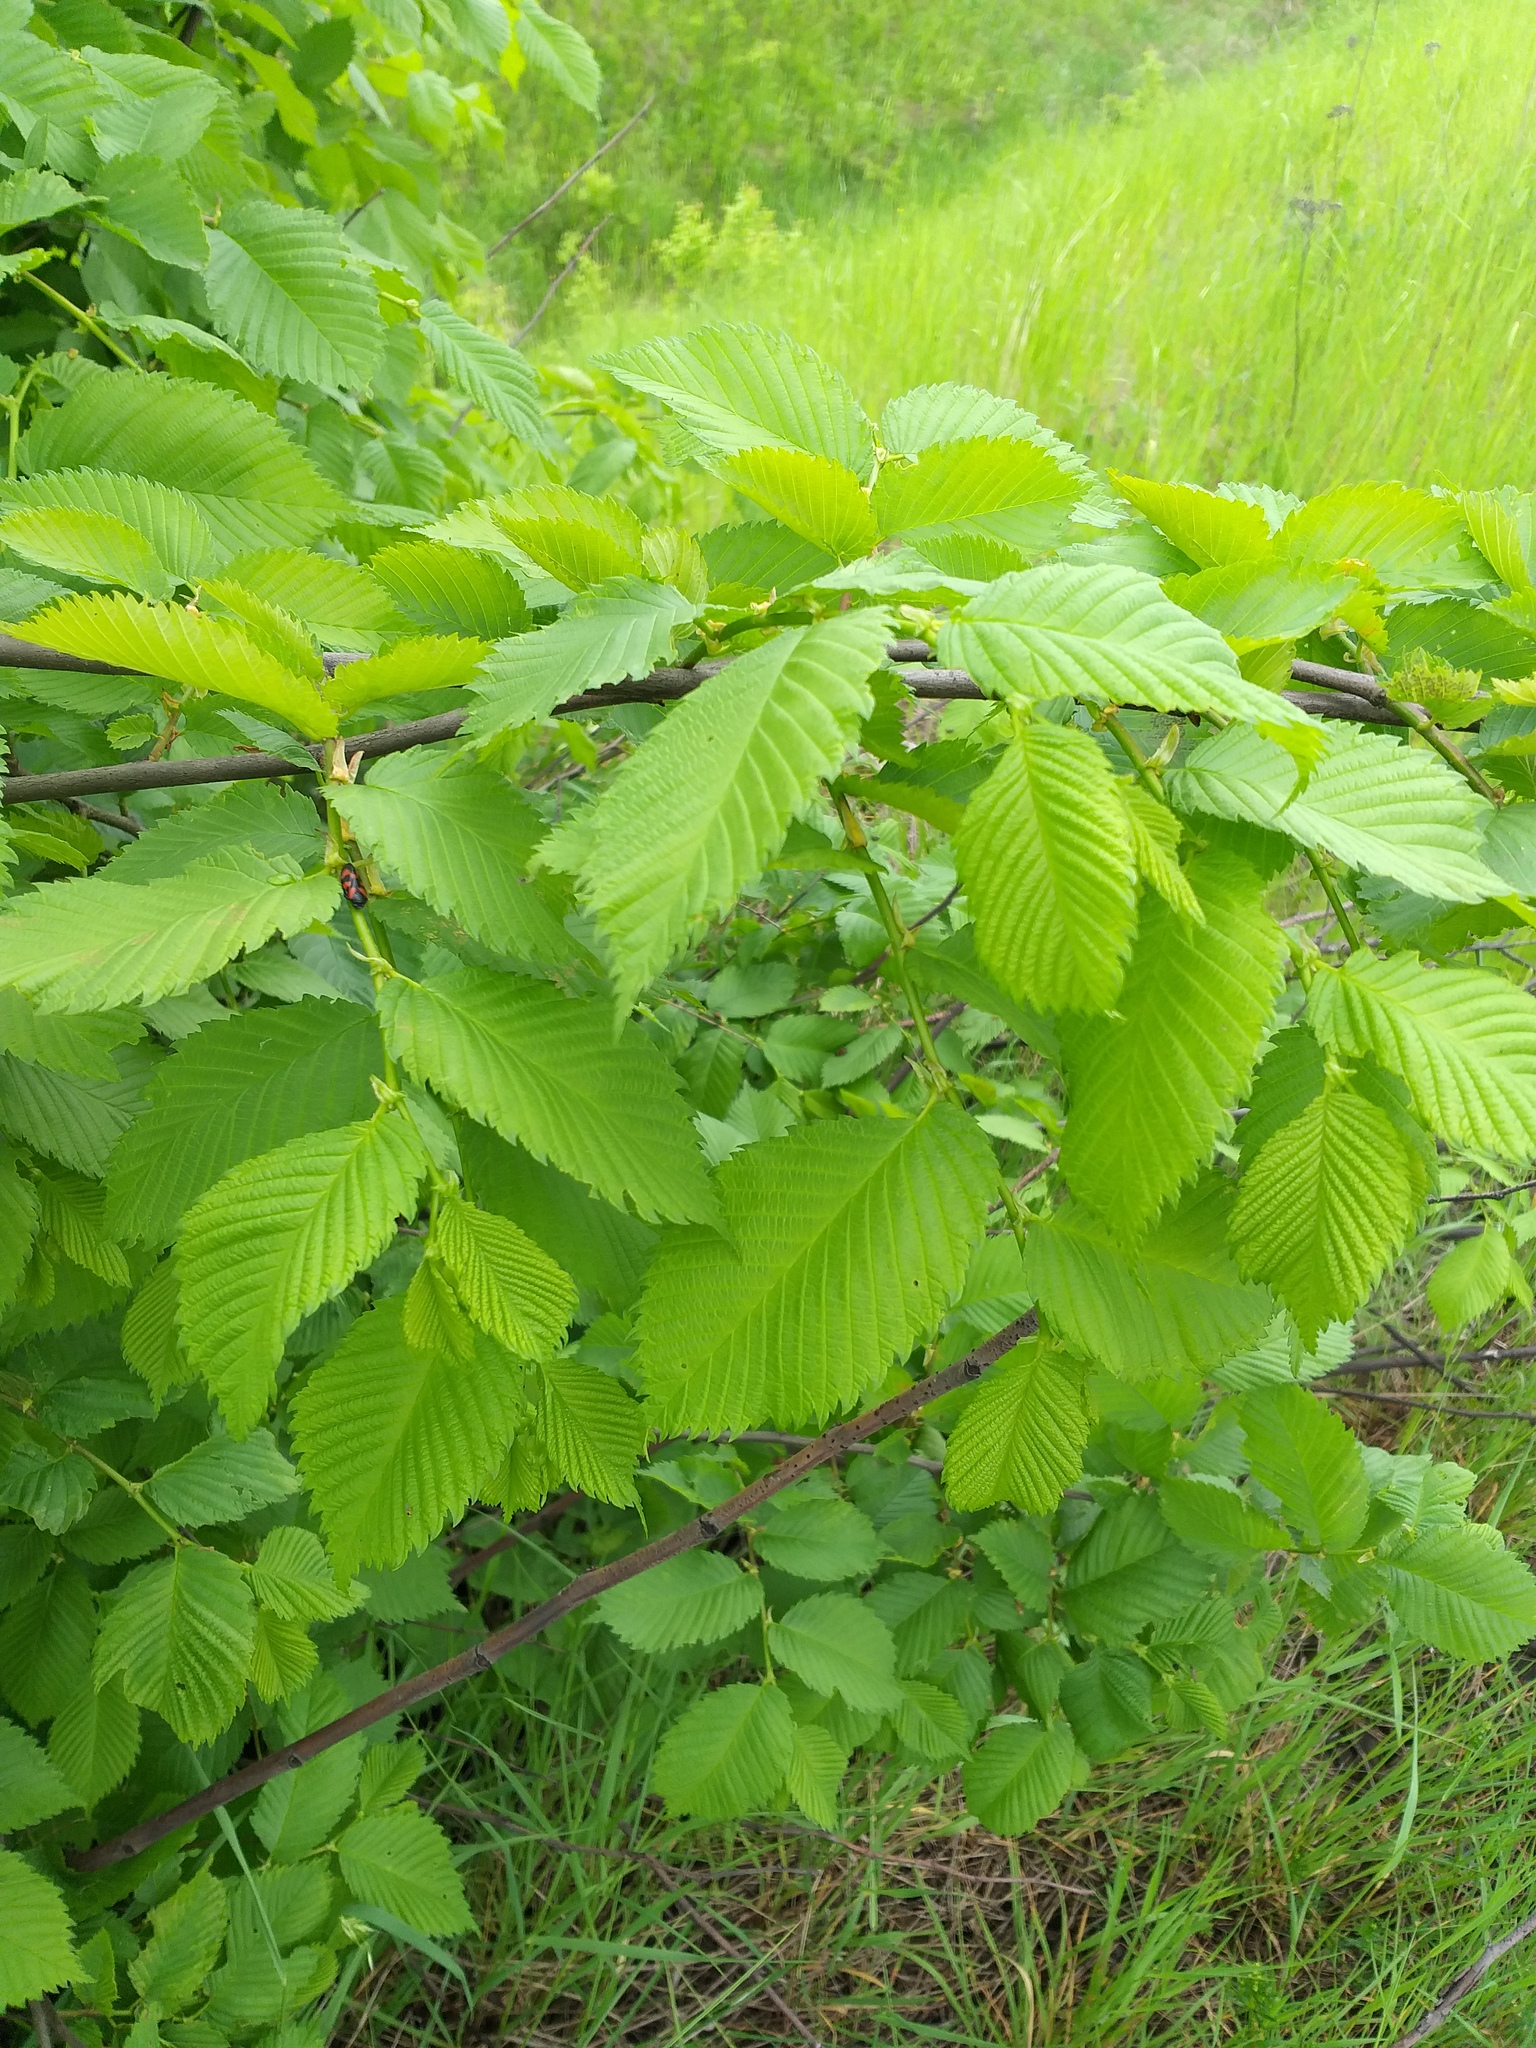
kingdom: Plantae
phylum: Tracheophyta
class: Magnoliopsida
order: Rosales
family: Ulmaceae
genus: Ulmus
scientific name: Ulmus laevis
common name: European white-elm
